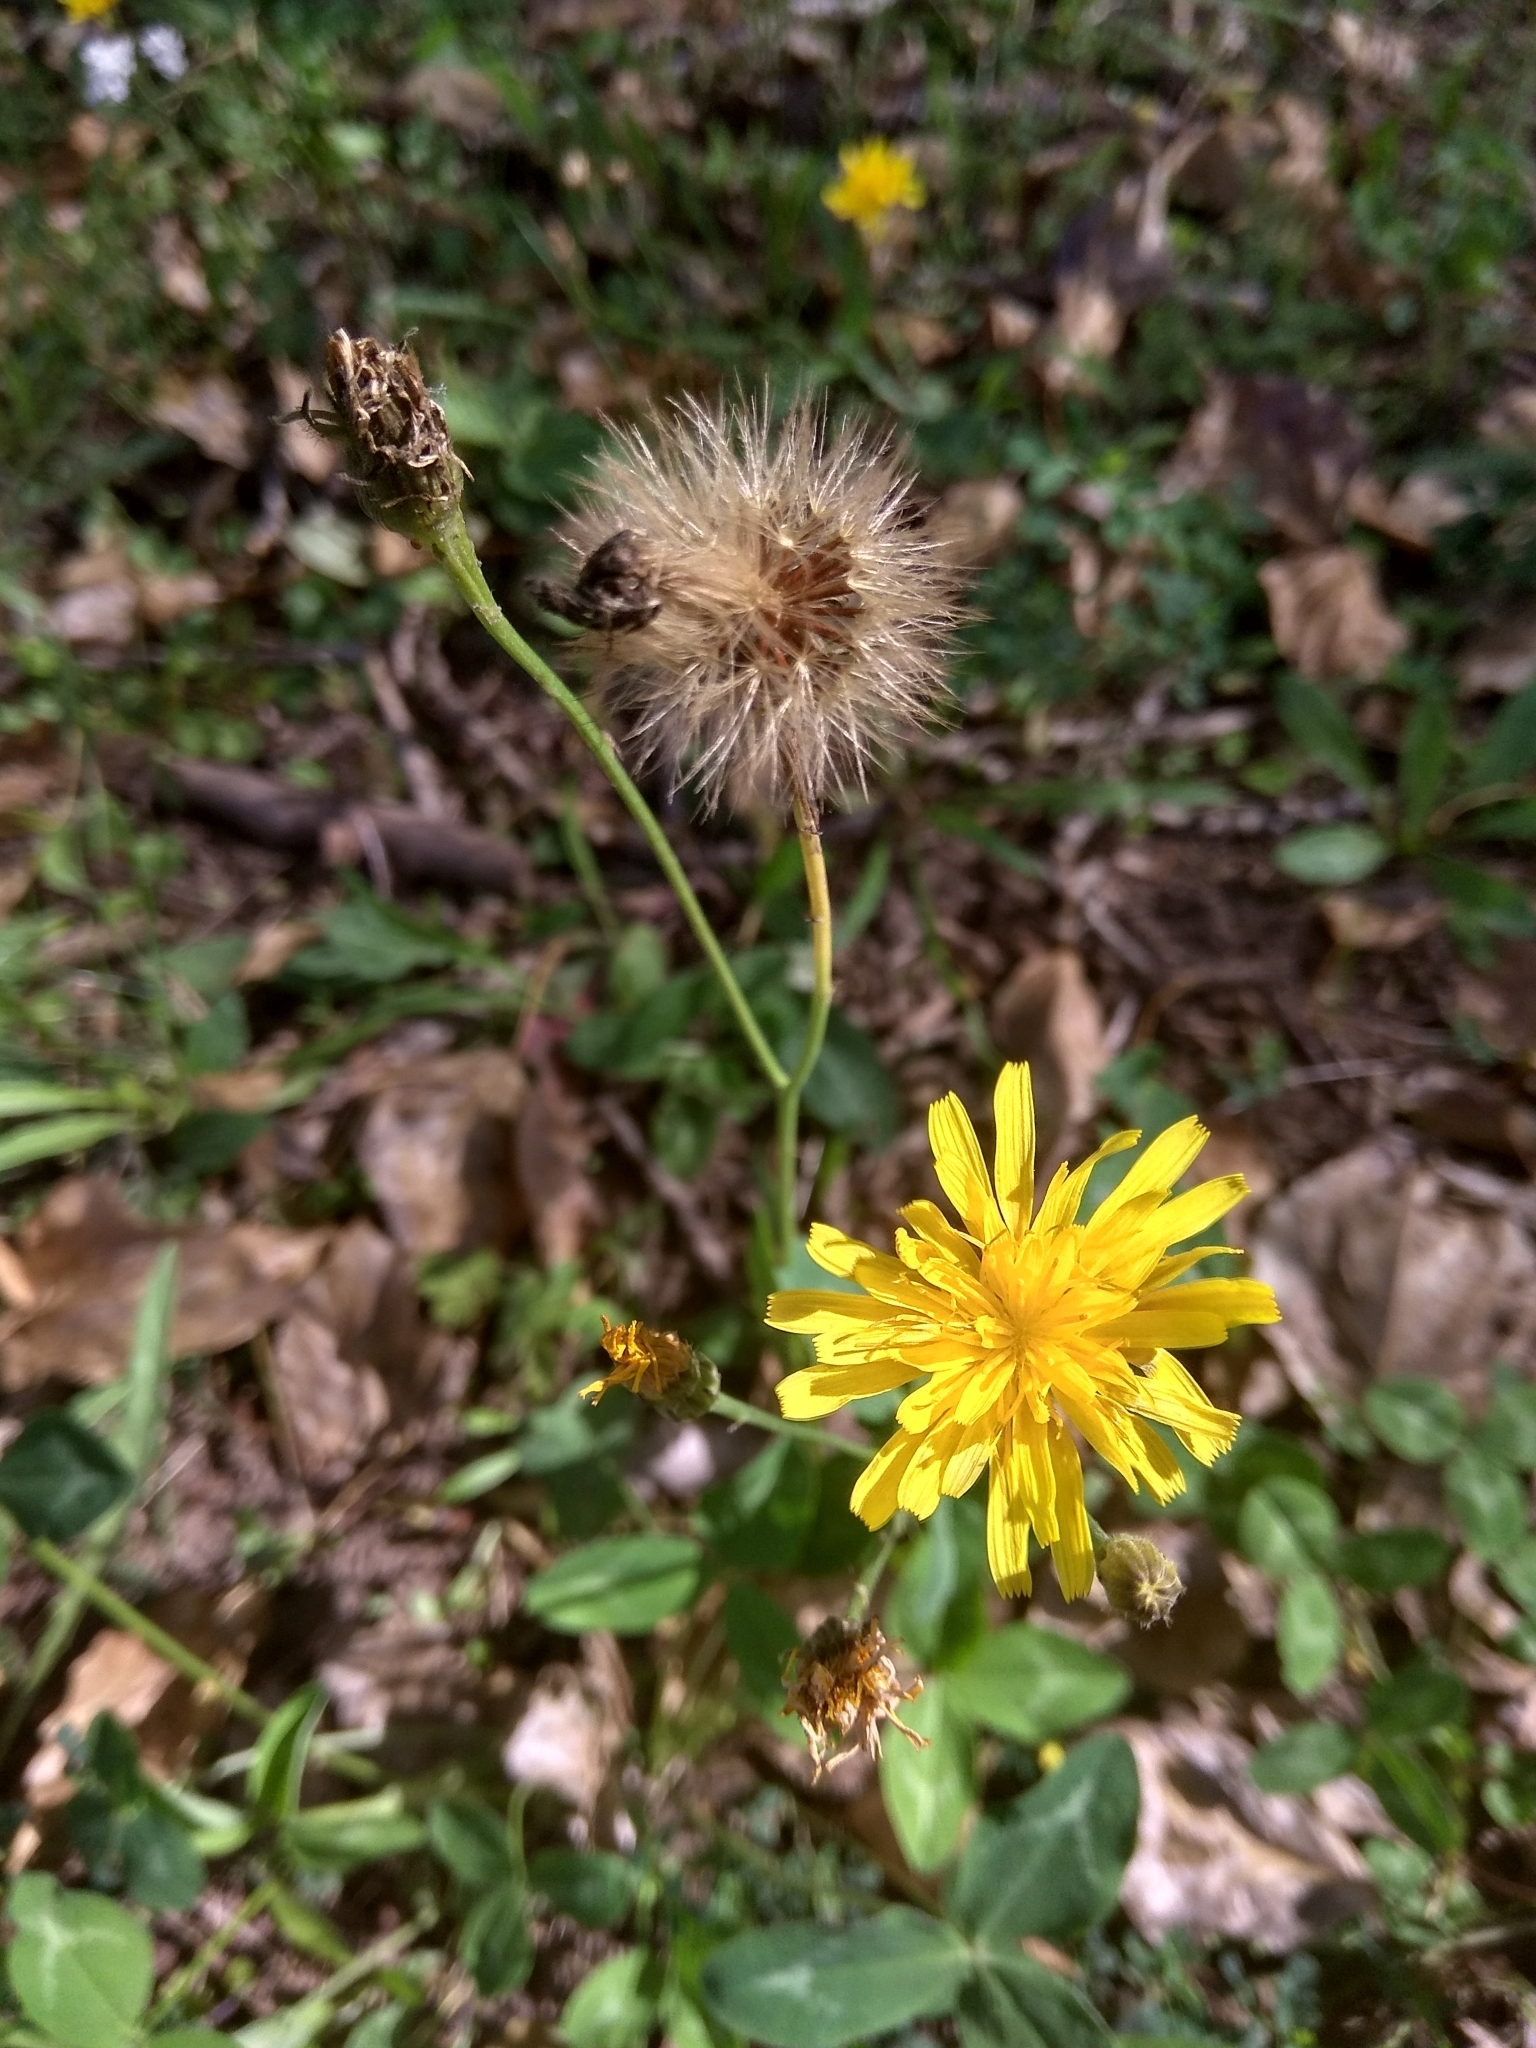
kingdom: Plantae
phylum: Tracheophyta
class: Magnoliopsida
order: Asterales
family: Asteraceae
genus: Scorzoneroides
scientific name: Scorzoneroides autumnalis
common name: Autumn hawkbit
